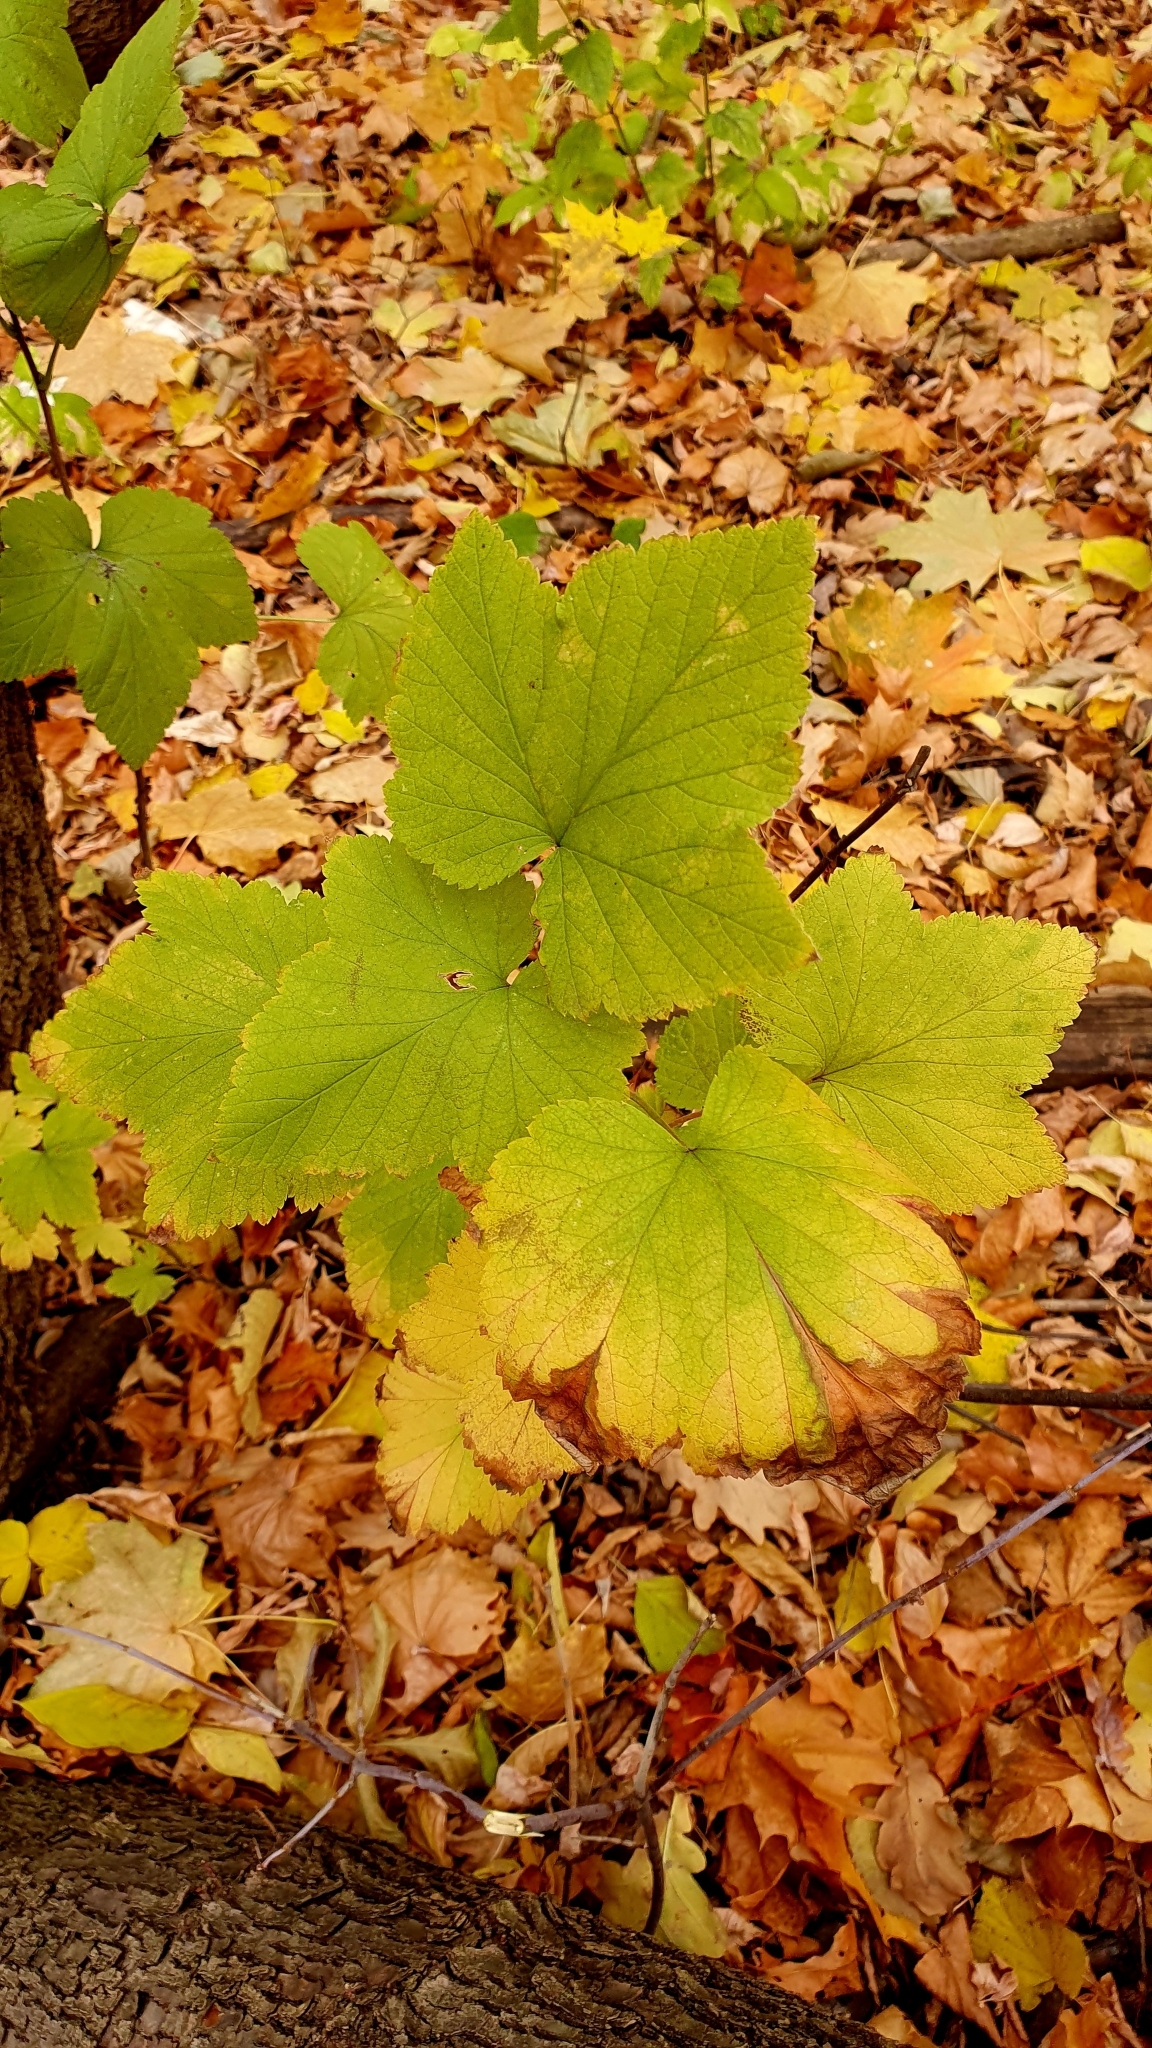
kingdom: Plantae
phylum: Tracheophyta
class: Magnoliopsida
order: Saxifragales
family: Grossulariaceae
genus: Ribes
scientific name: Ribes nigrum
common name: Black currant
